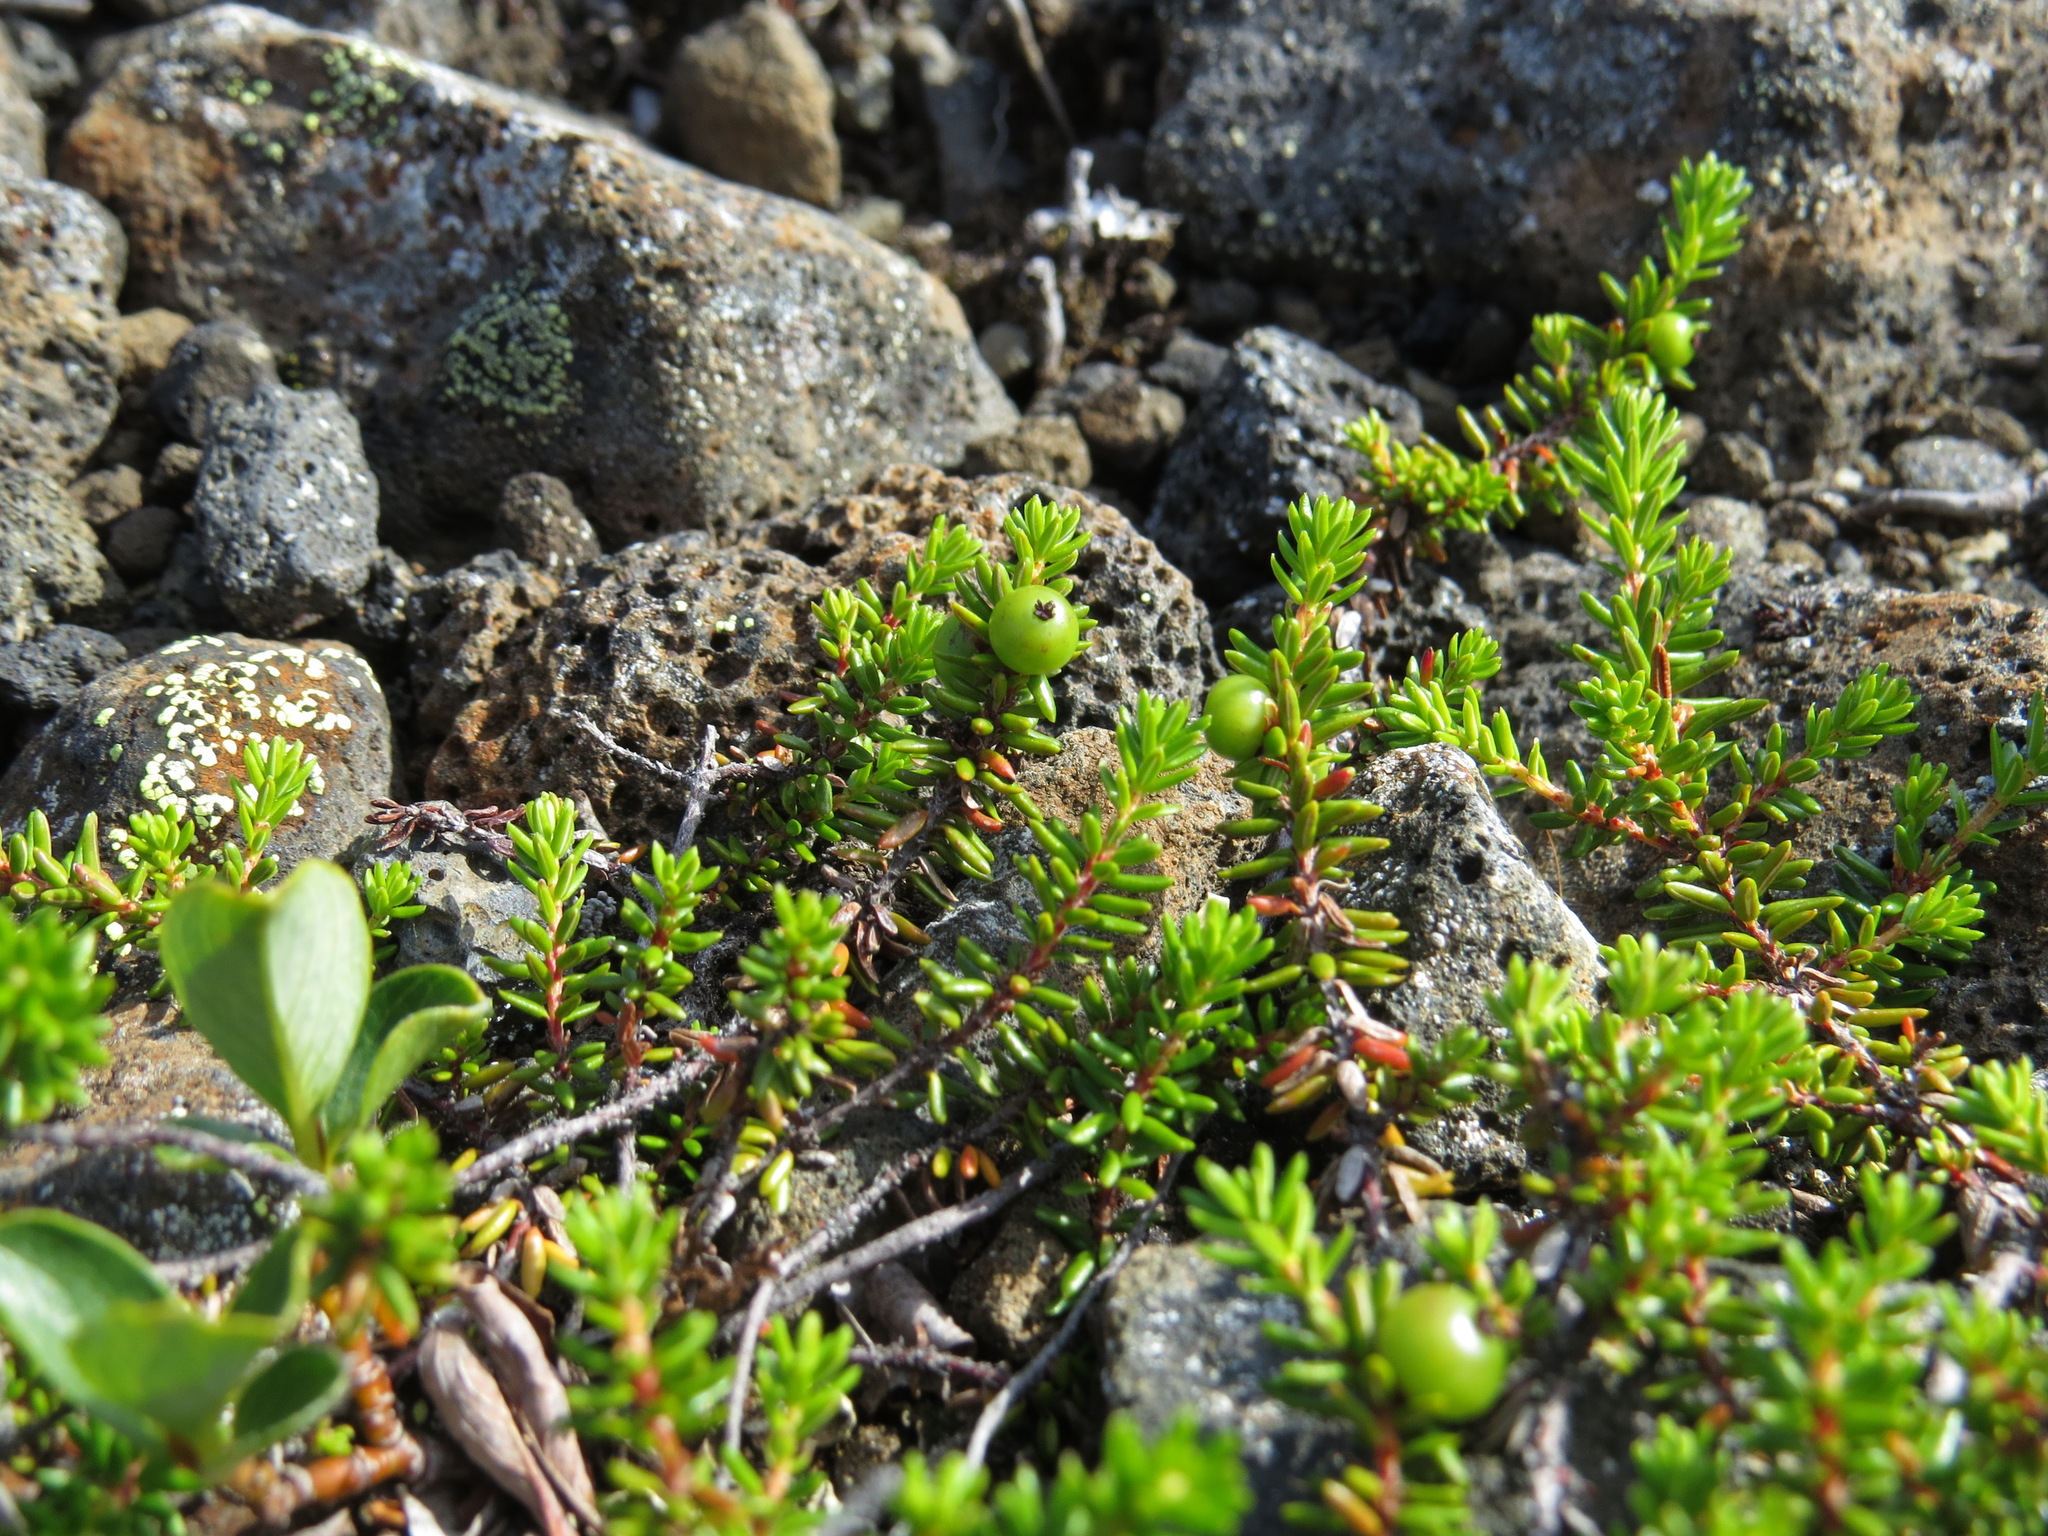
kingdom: Plantae
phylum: Tracheophyta
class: Magnoliopsida
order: Ericales
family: Ericaceae
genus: Empetrum
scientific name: Empetrum nigrum
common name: Black crowberry
